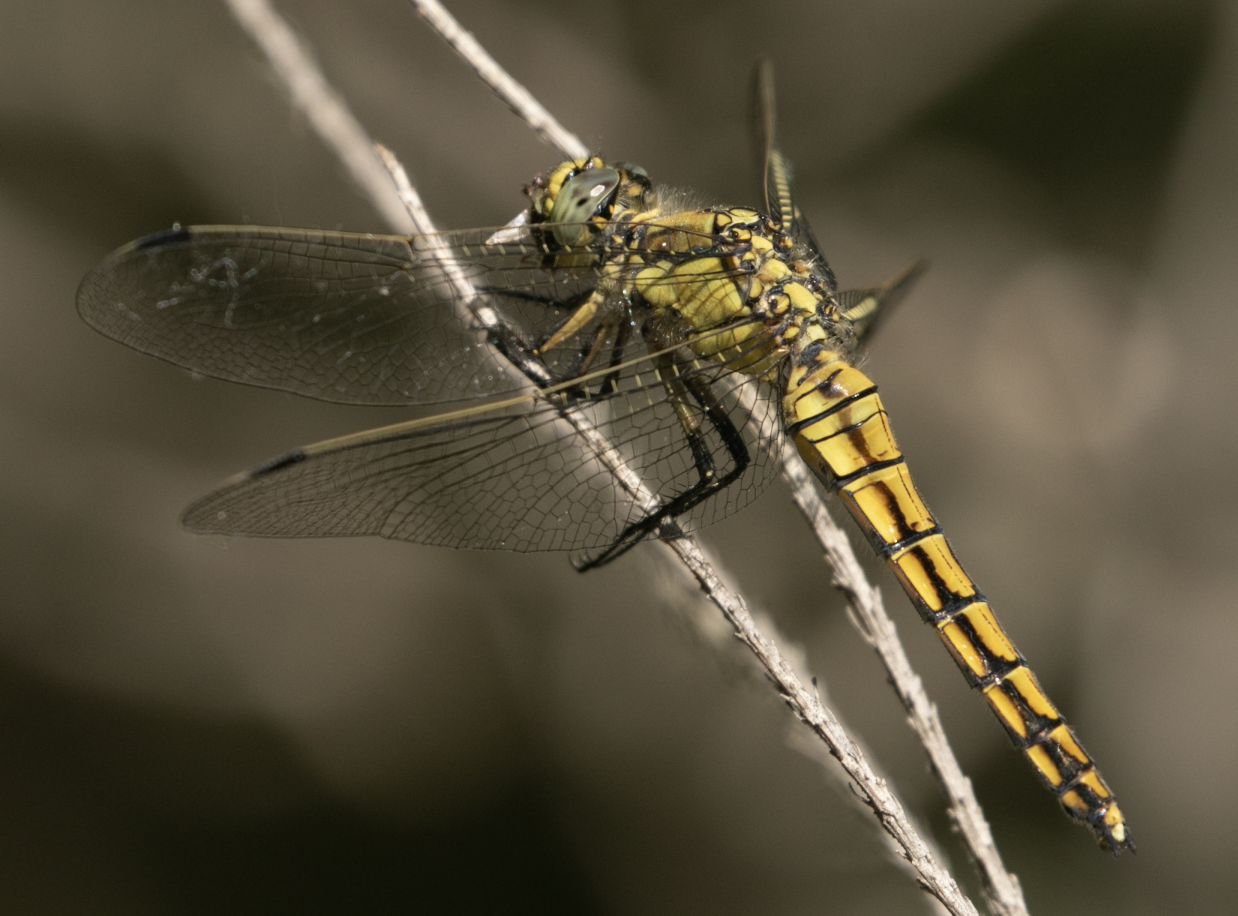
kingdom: Animalia
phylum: Arthropoda
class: Insecta
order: Odonata
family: Libellulidae
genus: Orthetrum
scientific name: Orthetrum cancellatum
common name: Black-tailed skimmer
